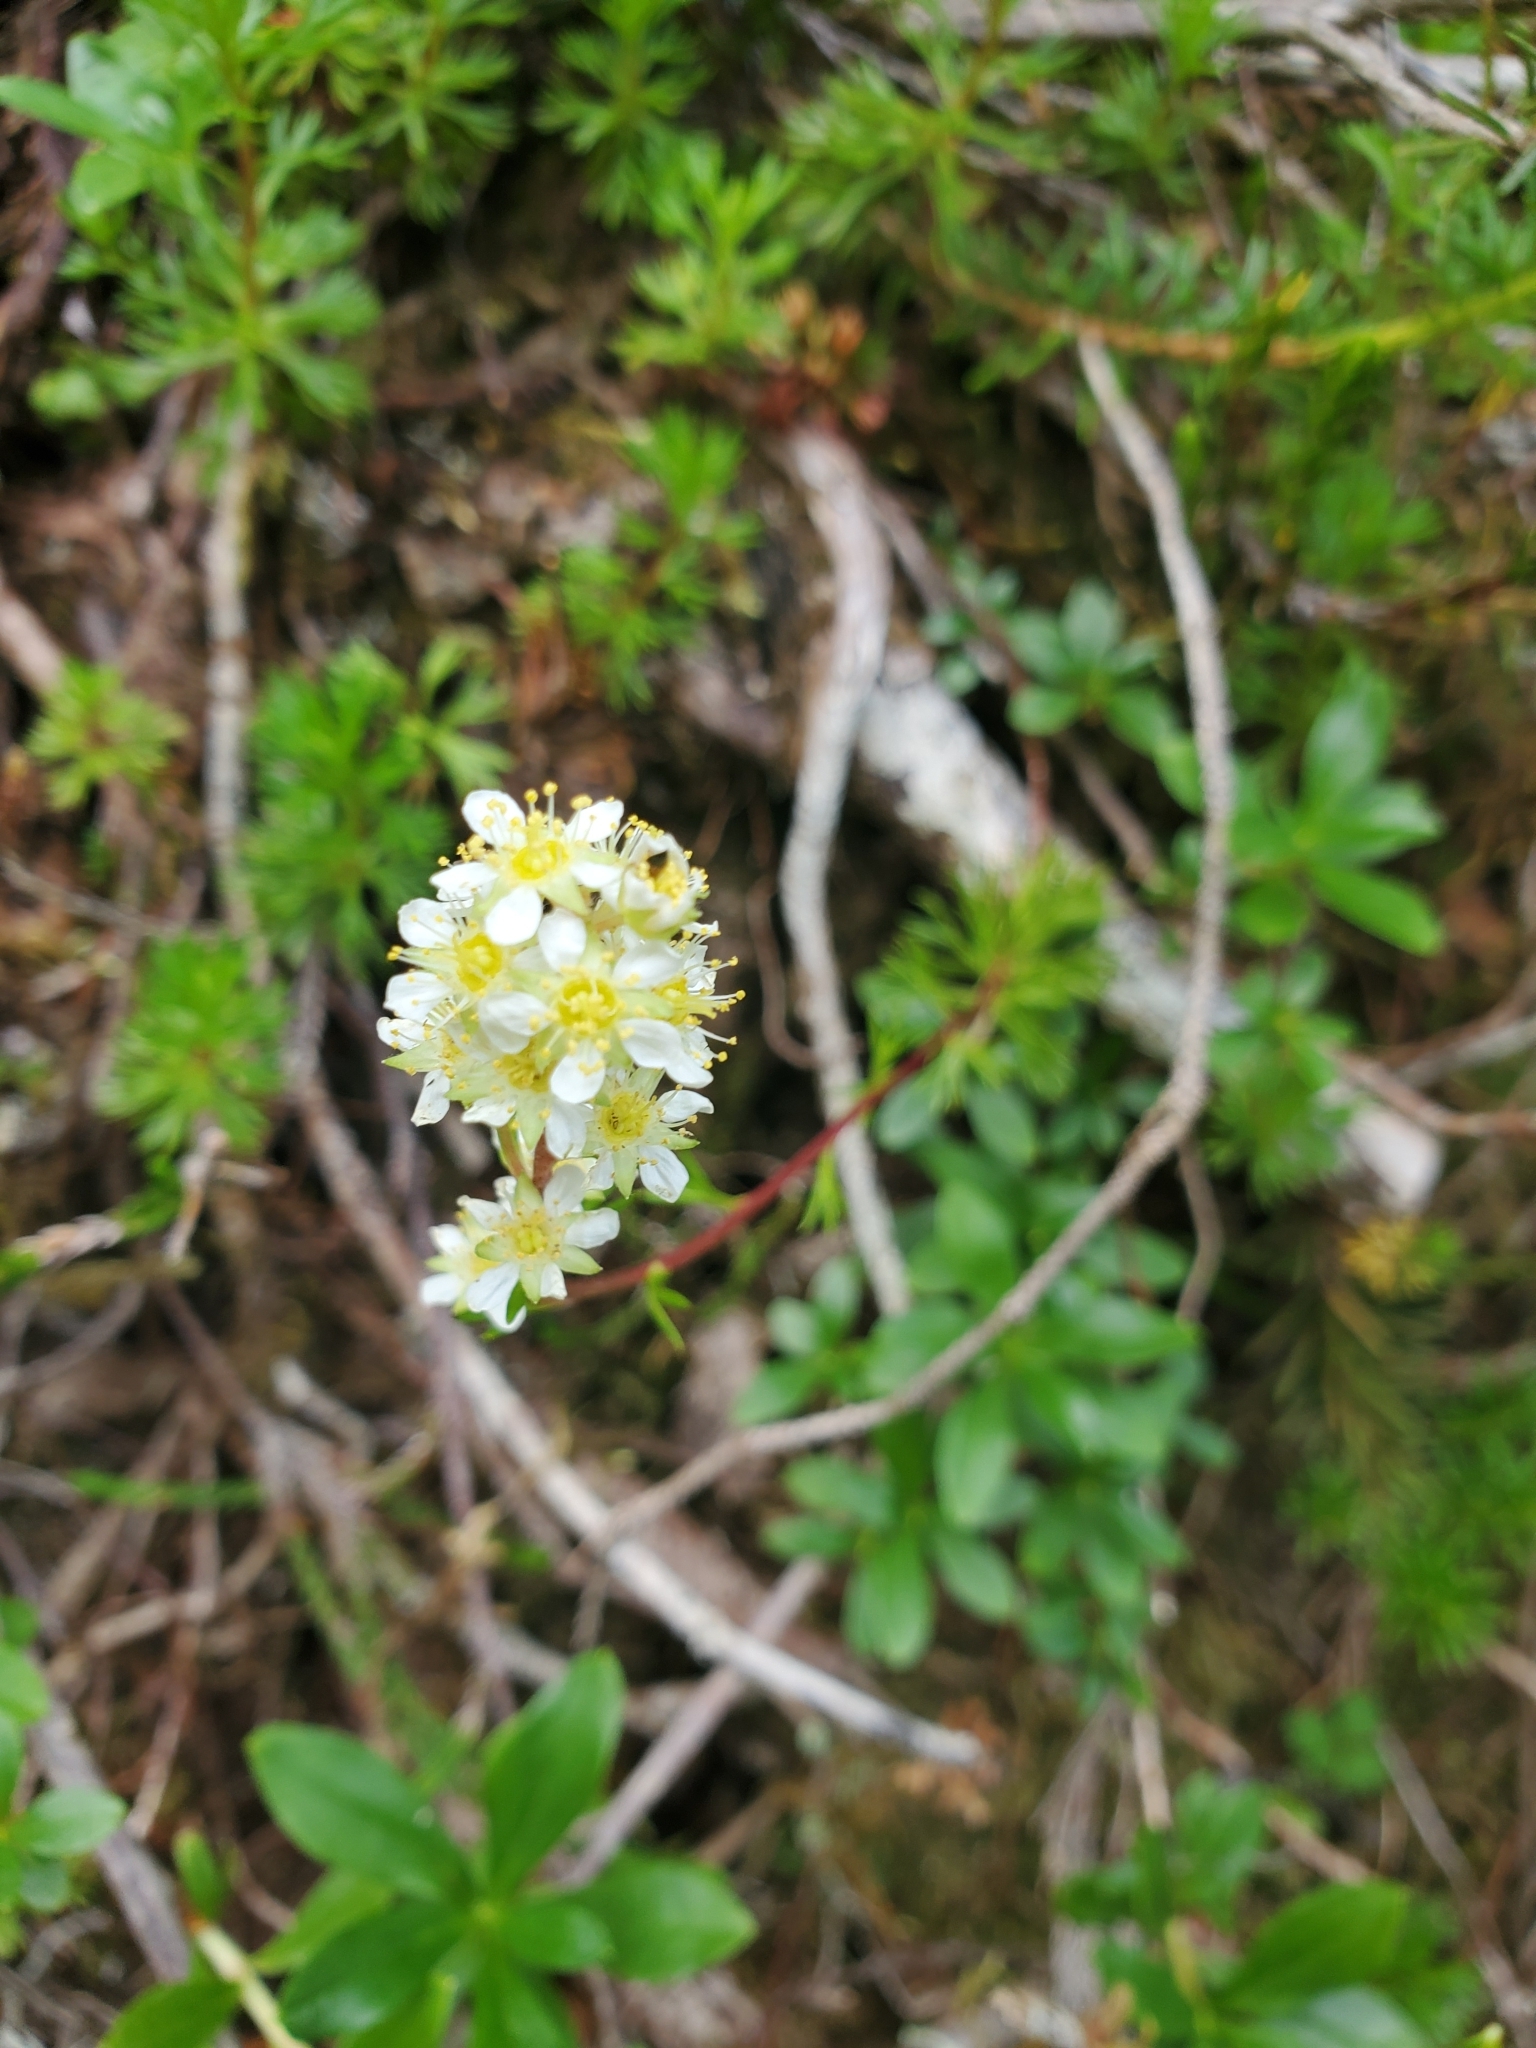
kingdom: Plantae
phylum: Tracheophyta
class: Magnoliopsida
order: Rosales
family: Rosaceae
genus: Luetkea
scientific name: Luetkea pectinata
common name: Partridgefoot
